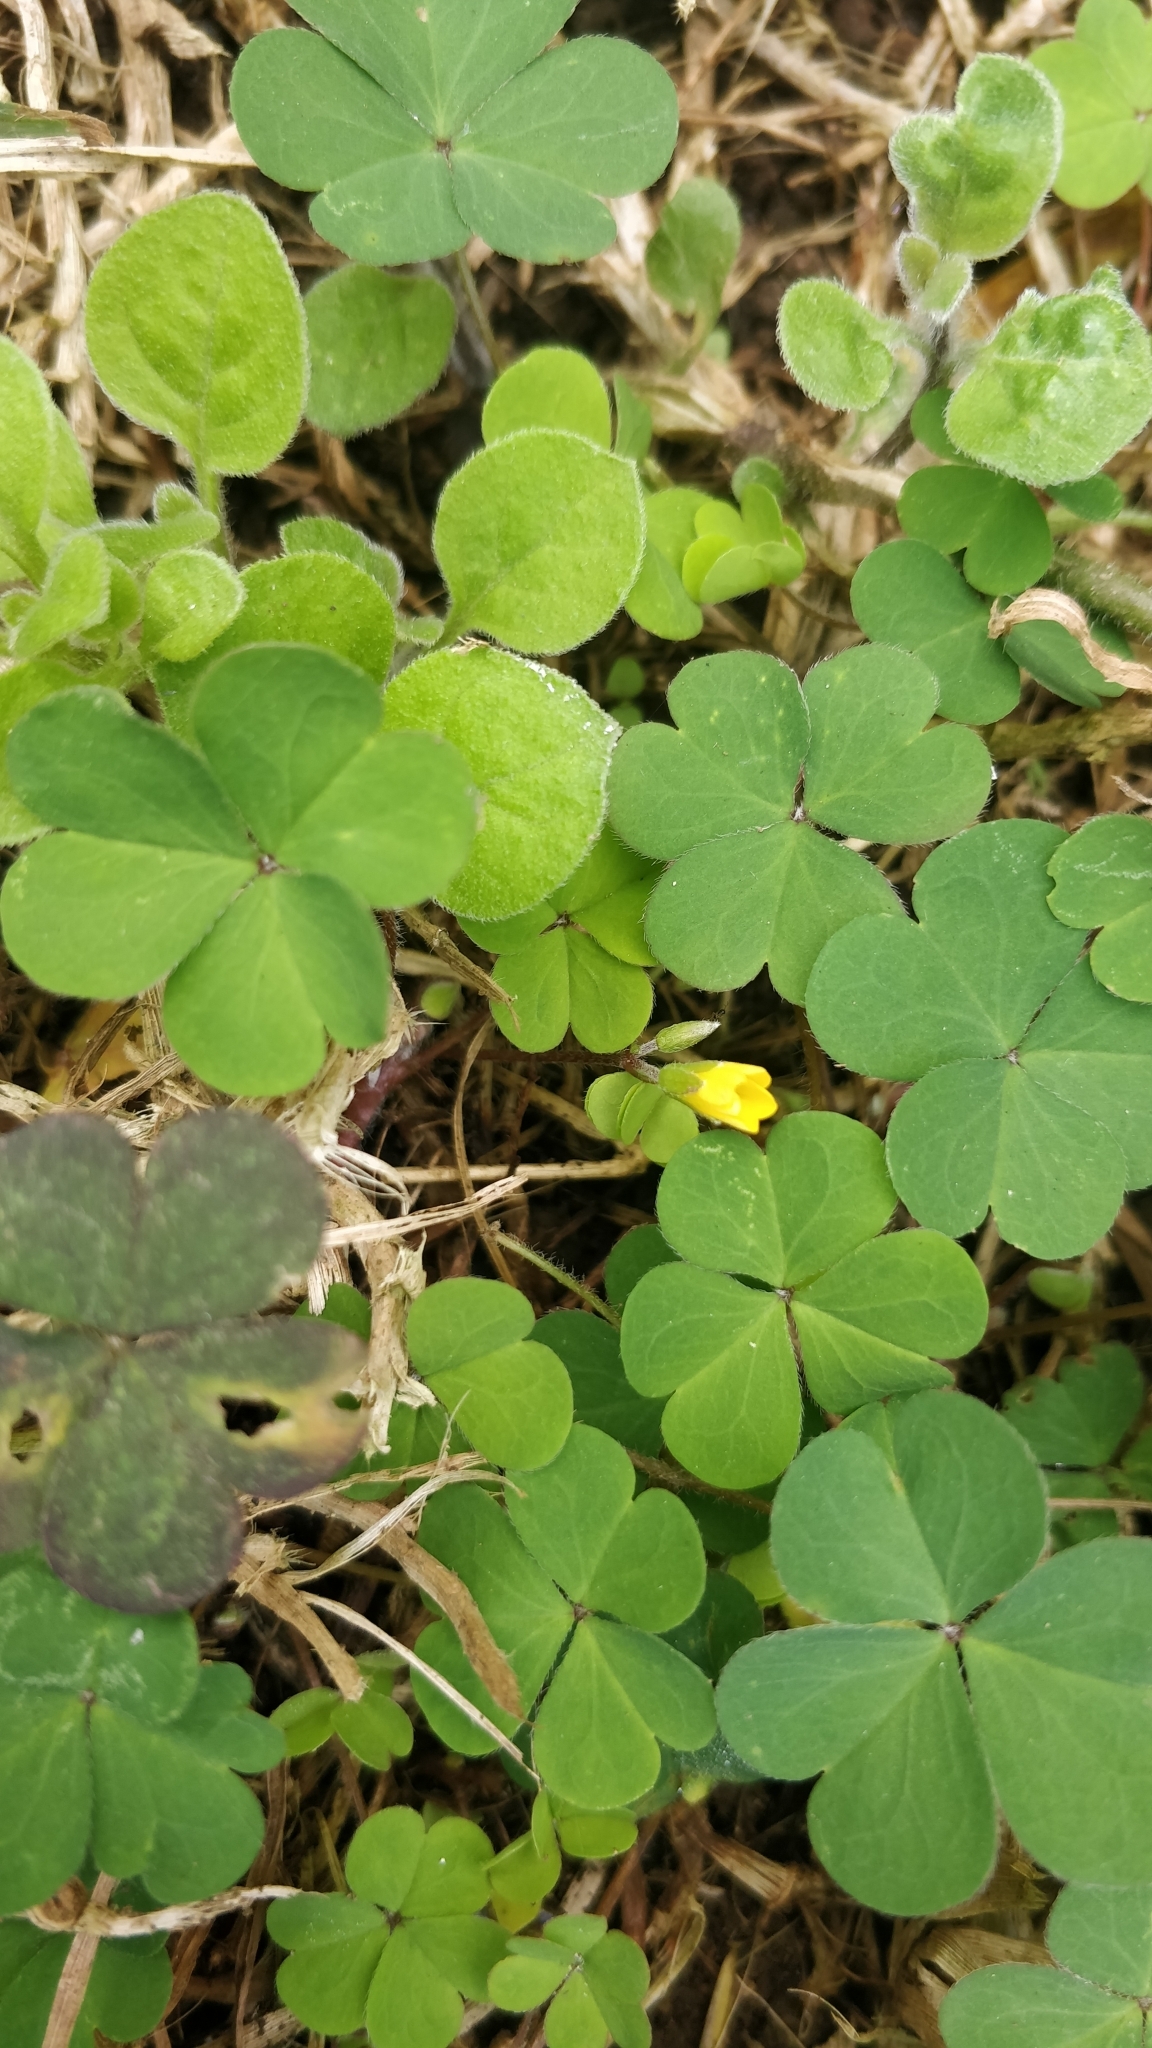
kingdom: Plantae
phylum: Tracheophyta
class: Magnoliopsida
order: Oxalidales
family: Oxalidaceae
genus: Oxalis
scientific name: Oxalis corniculata
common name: Procumbent yellow-sorrel
